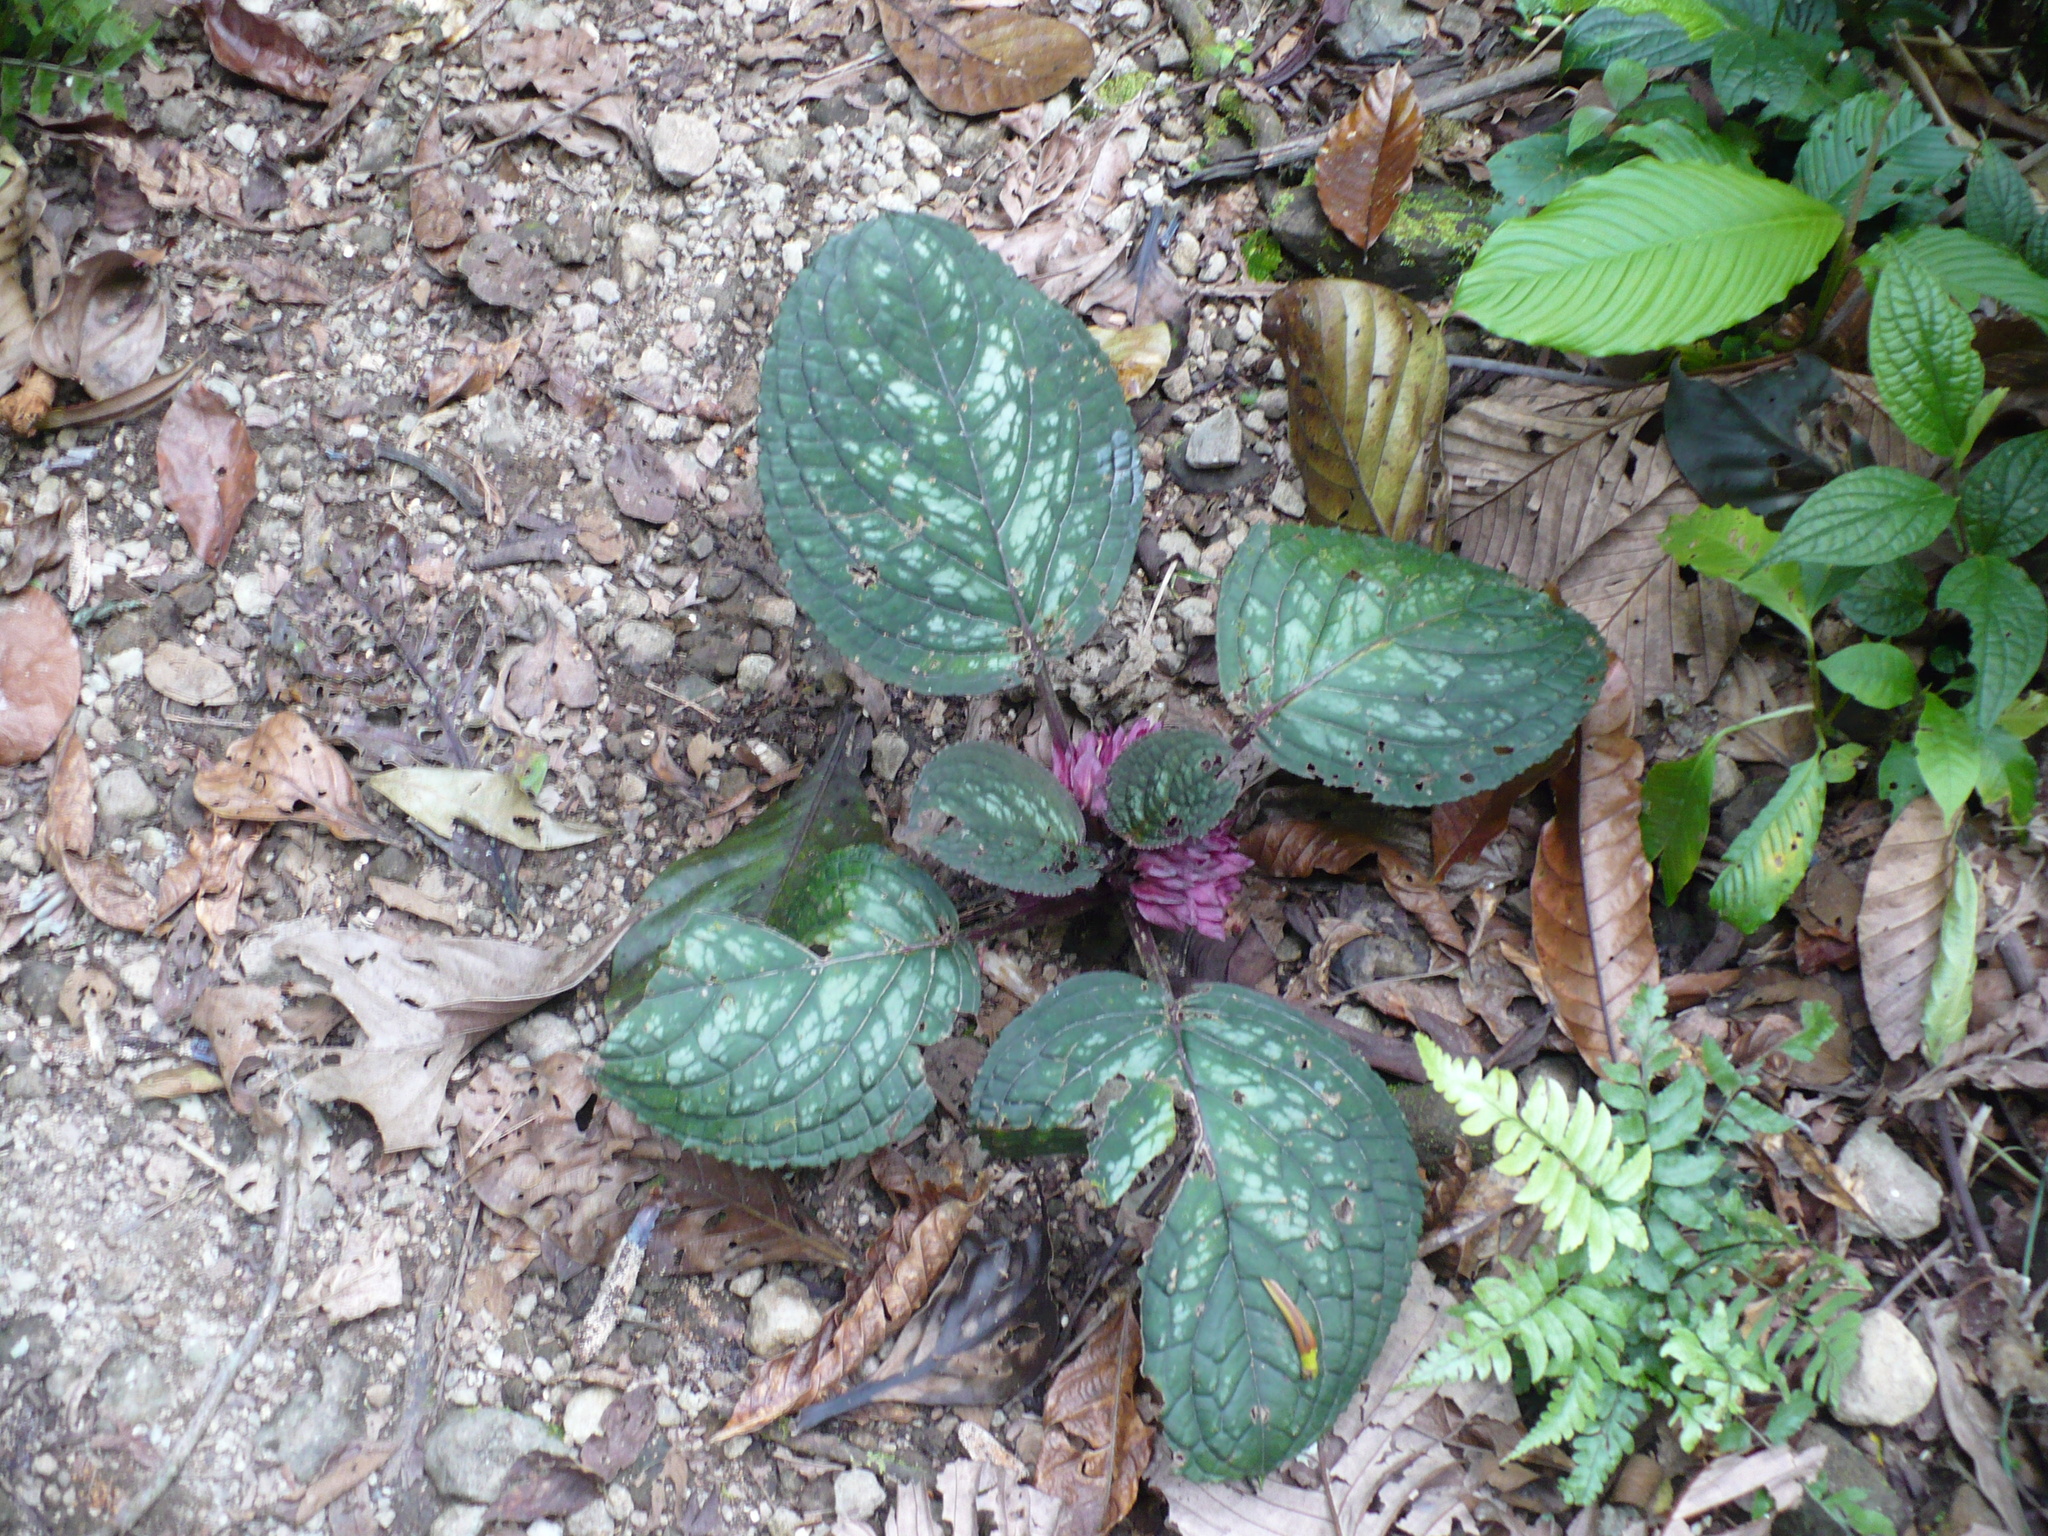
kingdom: Plantae
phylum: Tracheophyta
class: Magnoliopsida
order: Lamiales
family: Gesneriaceae
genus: Drymonia
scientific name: Drymonia turrialvae
